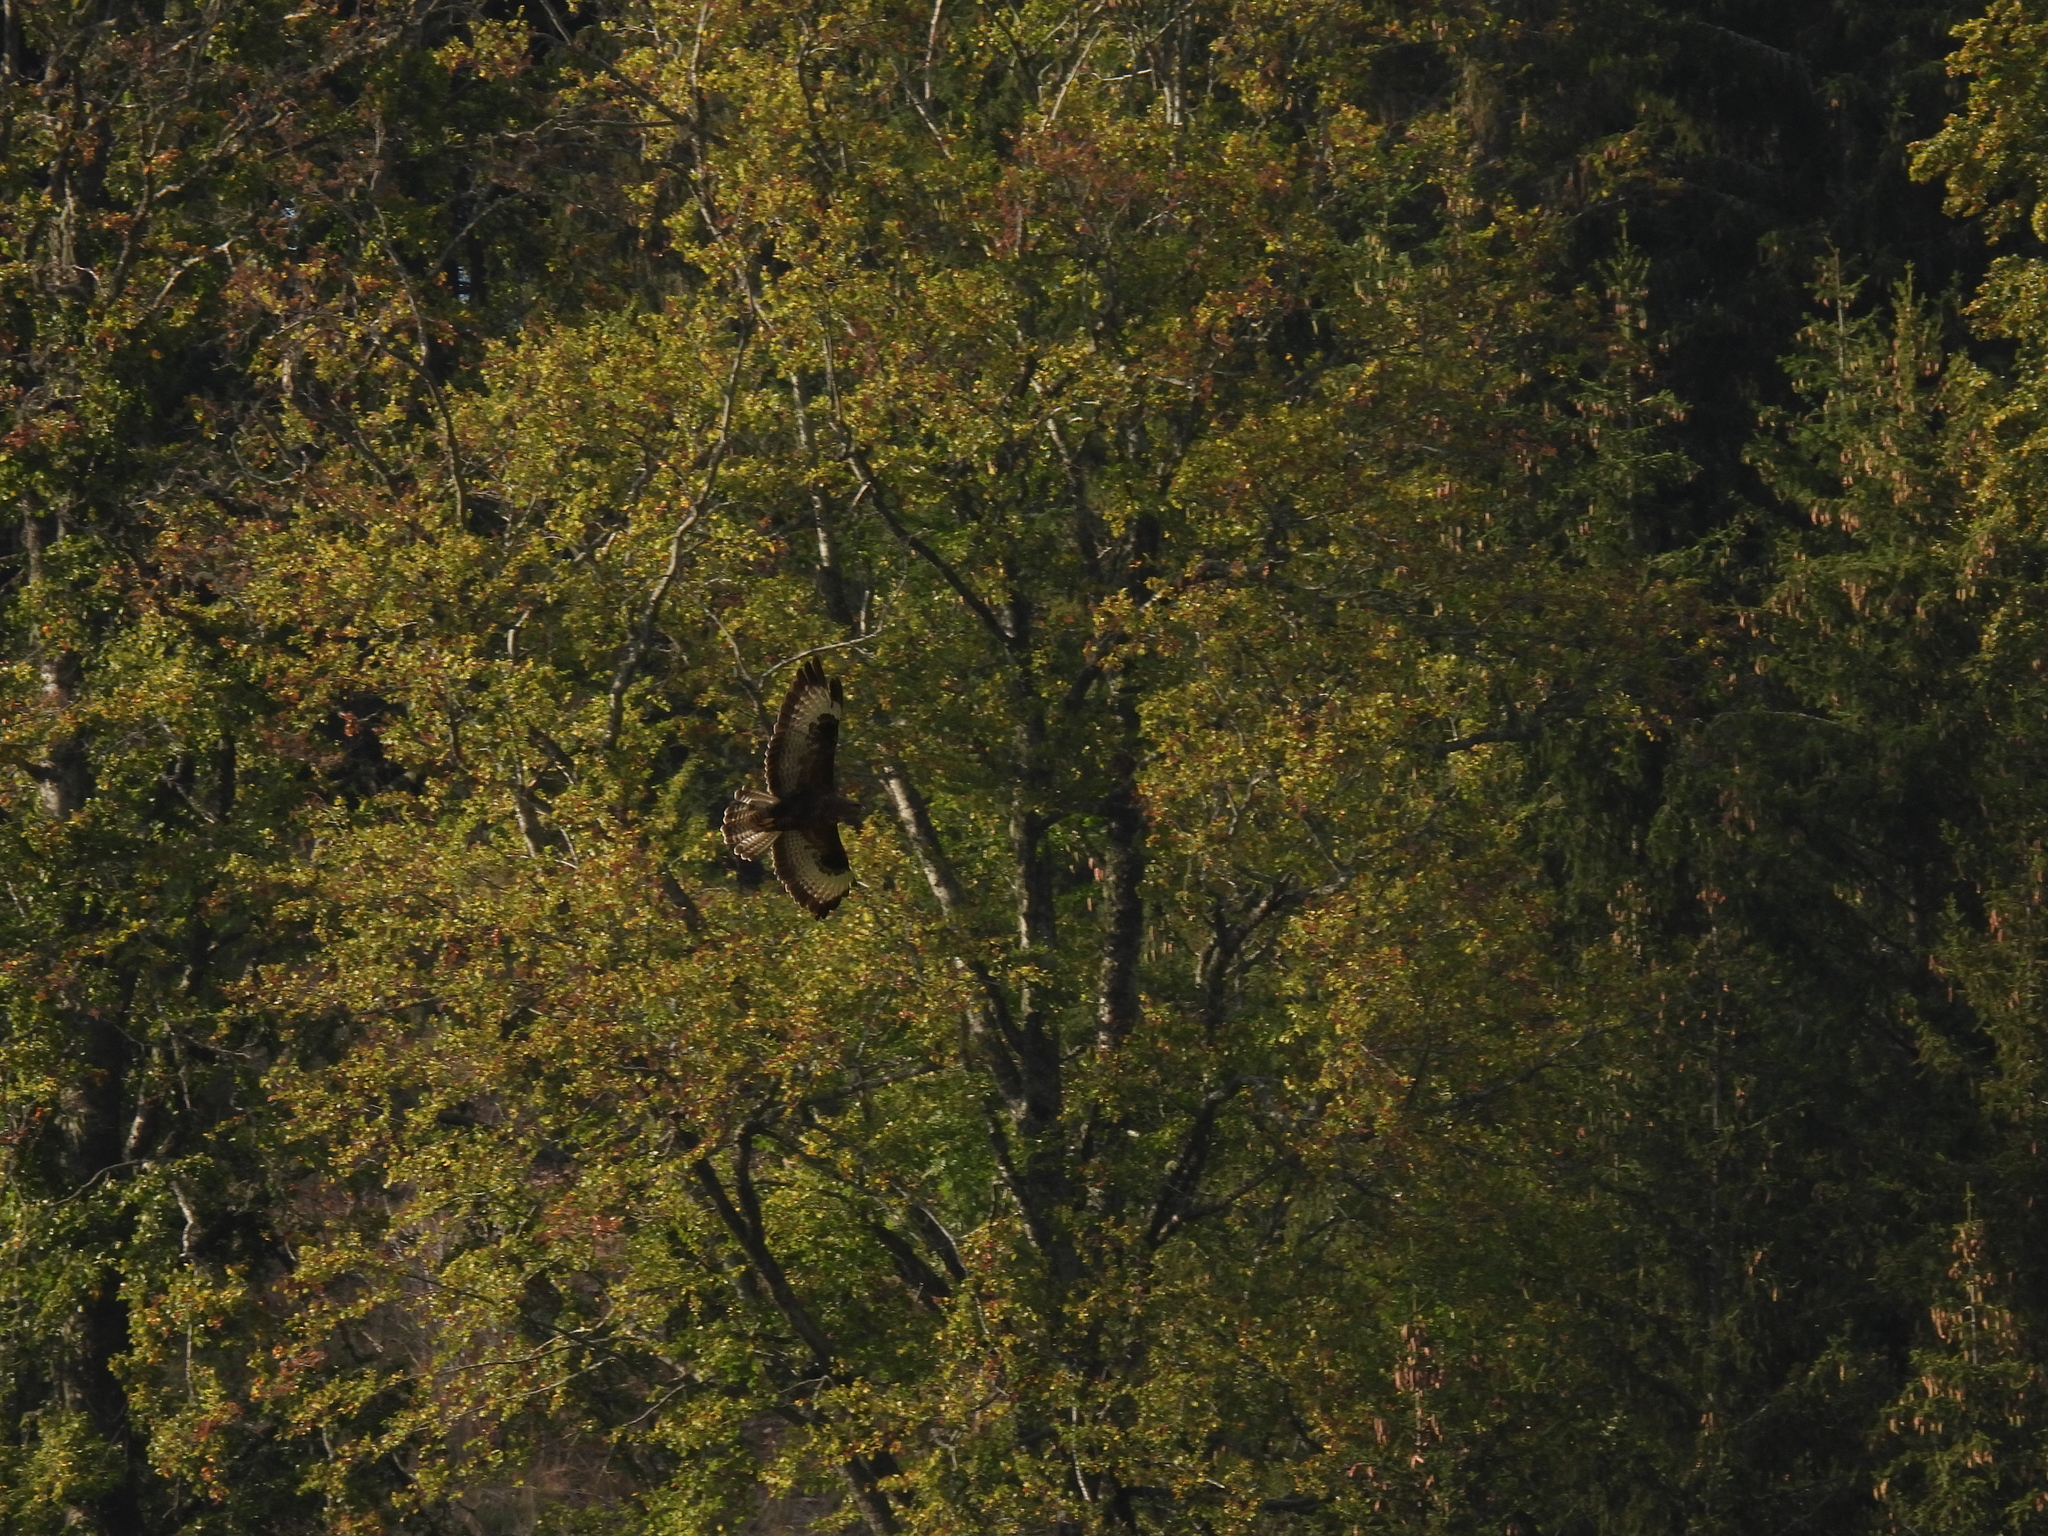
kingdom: Animalia
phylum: Chordata
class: Aves
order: Accipitriformes
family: Accipitridae
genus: Buteo
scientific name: Buteo buteo
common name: Common buzzard
